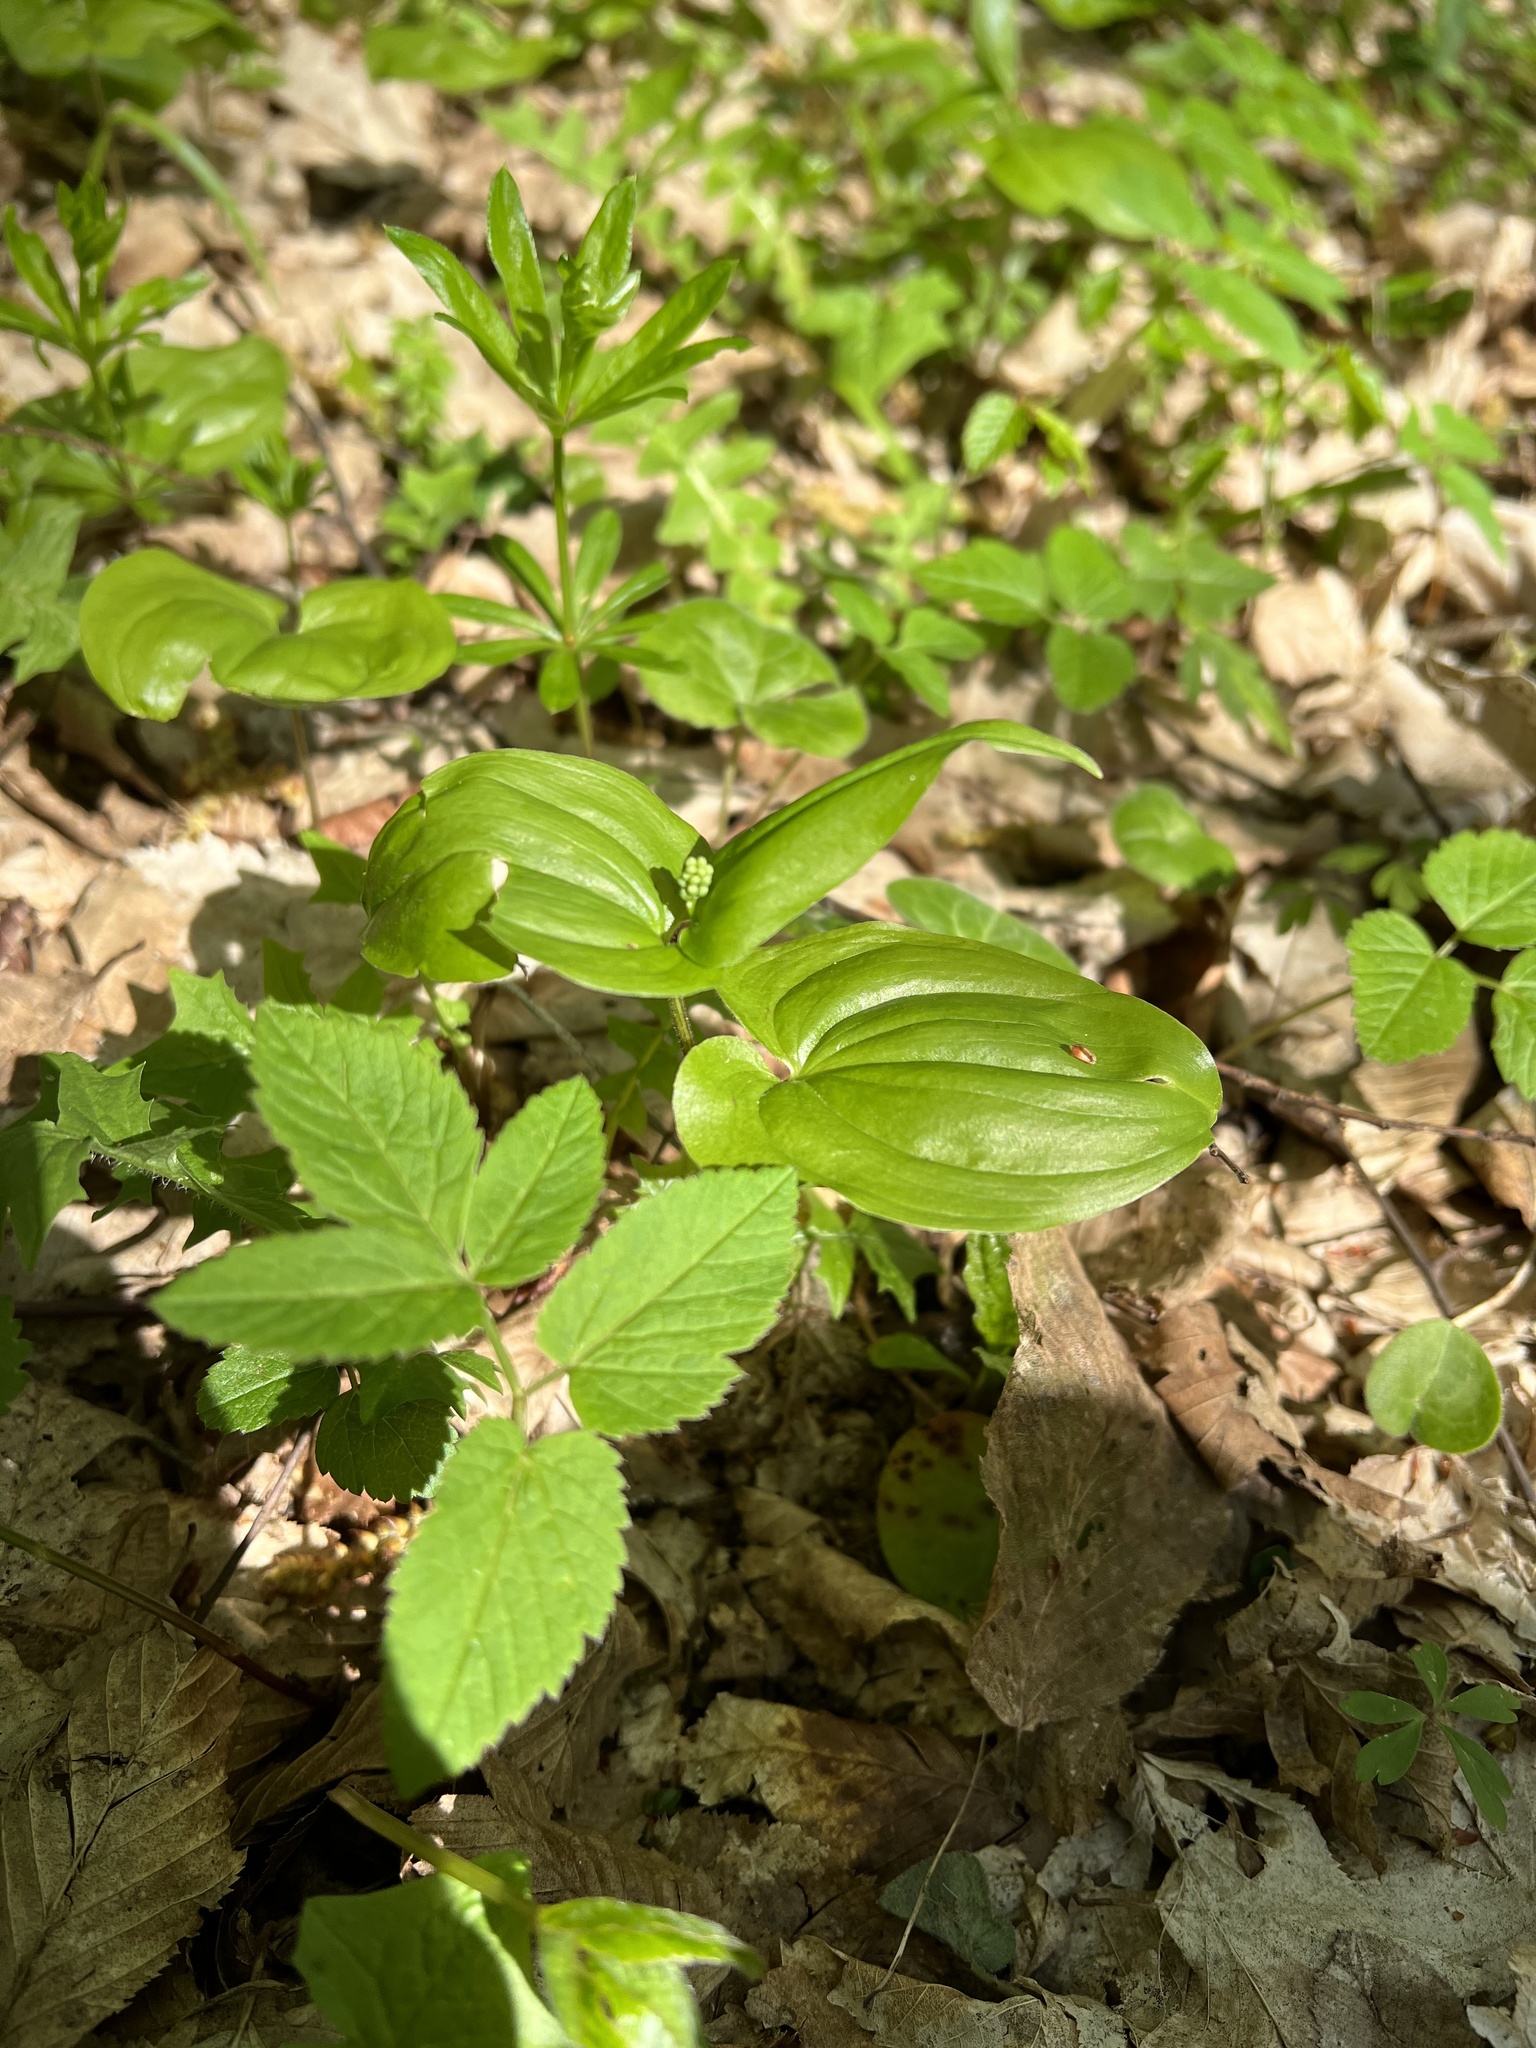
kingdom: Plantae
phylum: Tracheophyta
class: Liliopsida
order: Asparagales
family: Asparagaceae
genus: Maianthemum
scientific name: Maianthemum bifolium
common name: May lily
